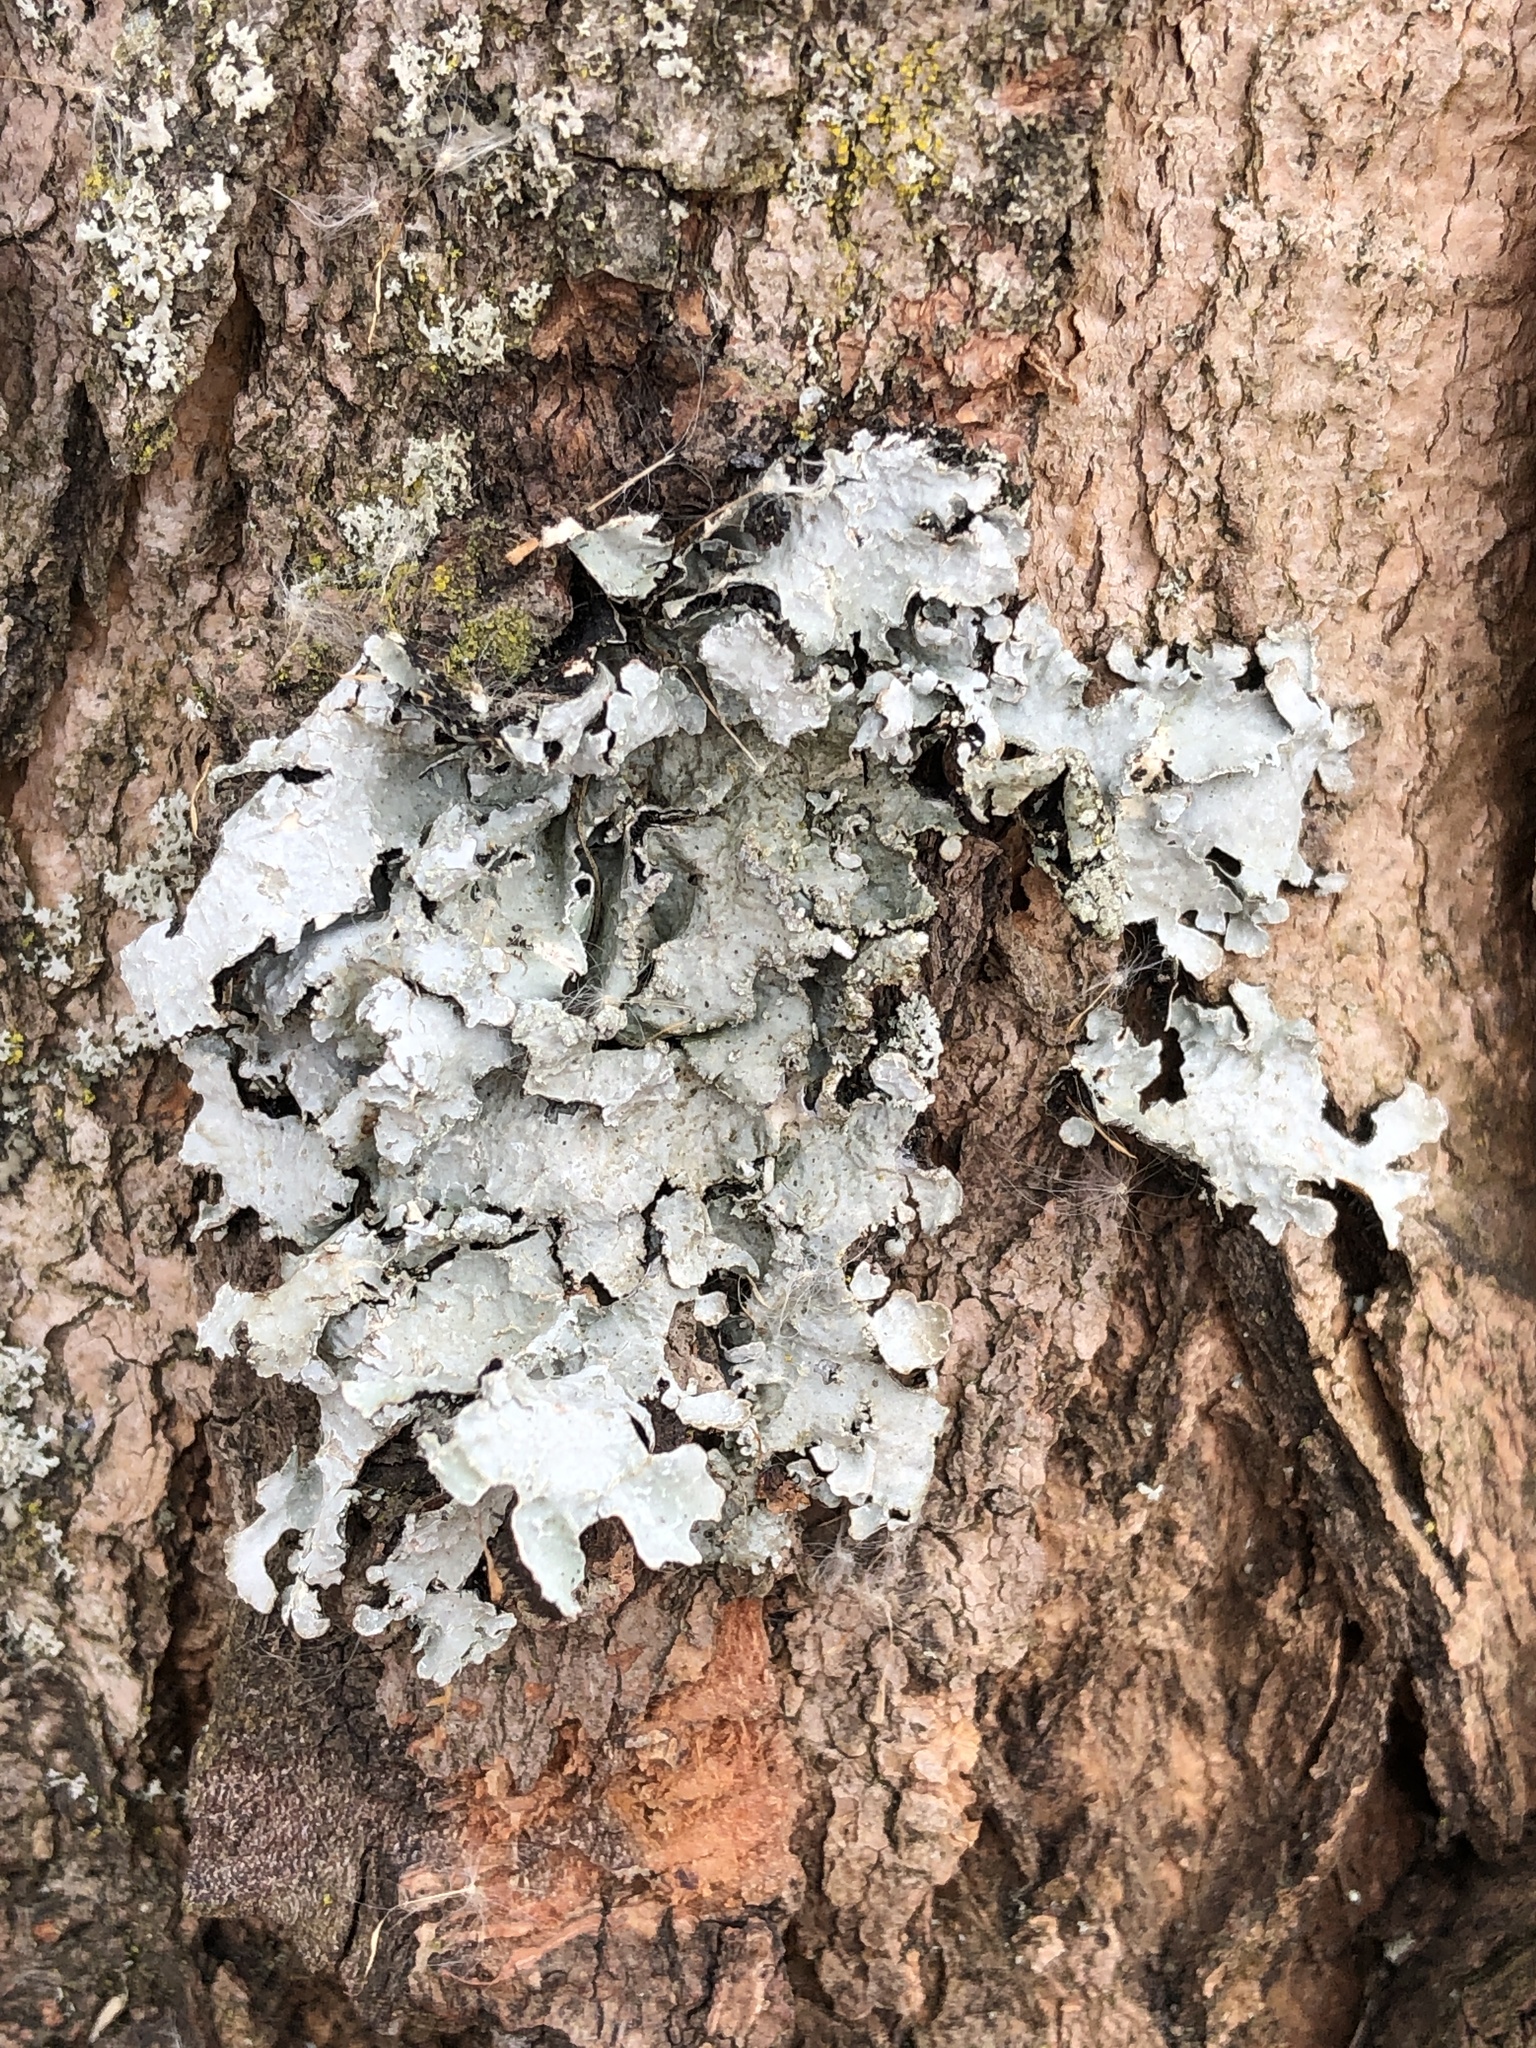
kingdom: Fungi
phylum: Ascomycota
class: Lecanoromycetes
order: Lecanorales
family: Parmeliaceae
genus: Parmelia
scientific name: Parmelia sulcata
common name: Netted shield lichen
